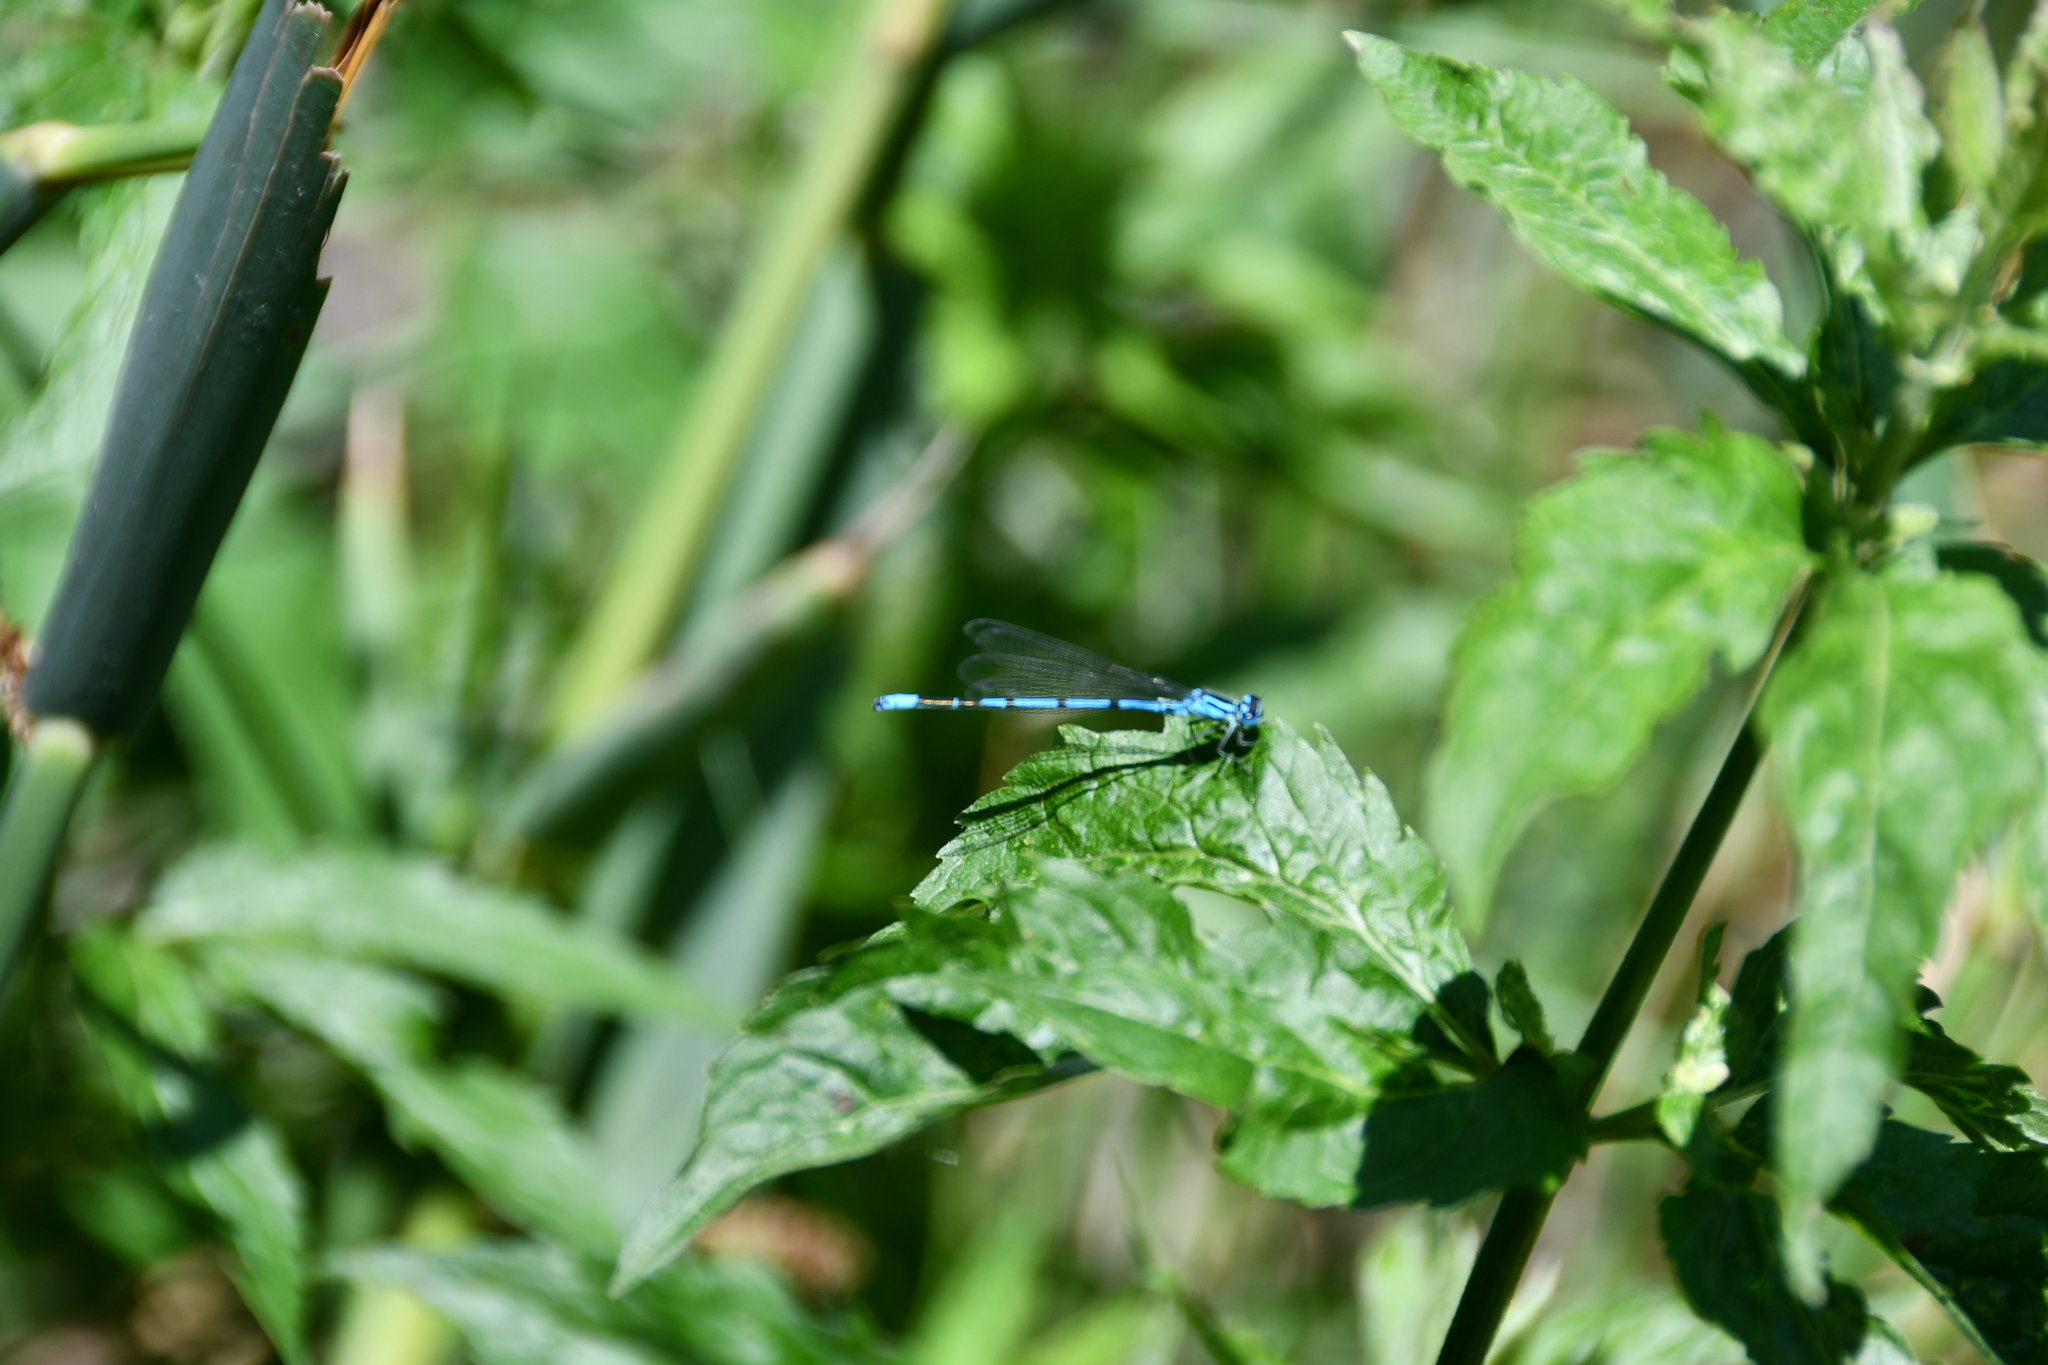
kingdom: Animalia
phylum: Arthropoda
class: Insecta
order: Odonata
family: Coenagrionidae
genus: Coenagrion
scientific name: Coenagrion puella
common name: Azure damselfly
